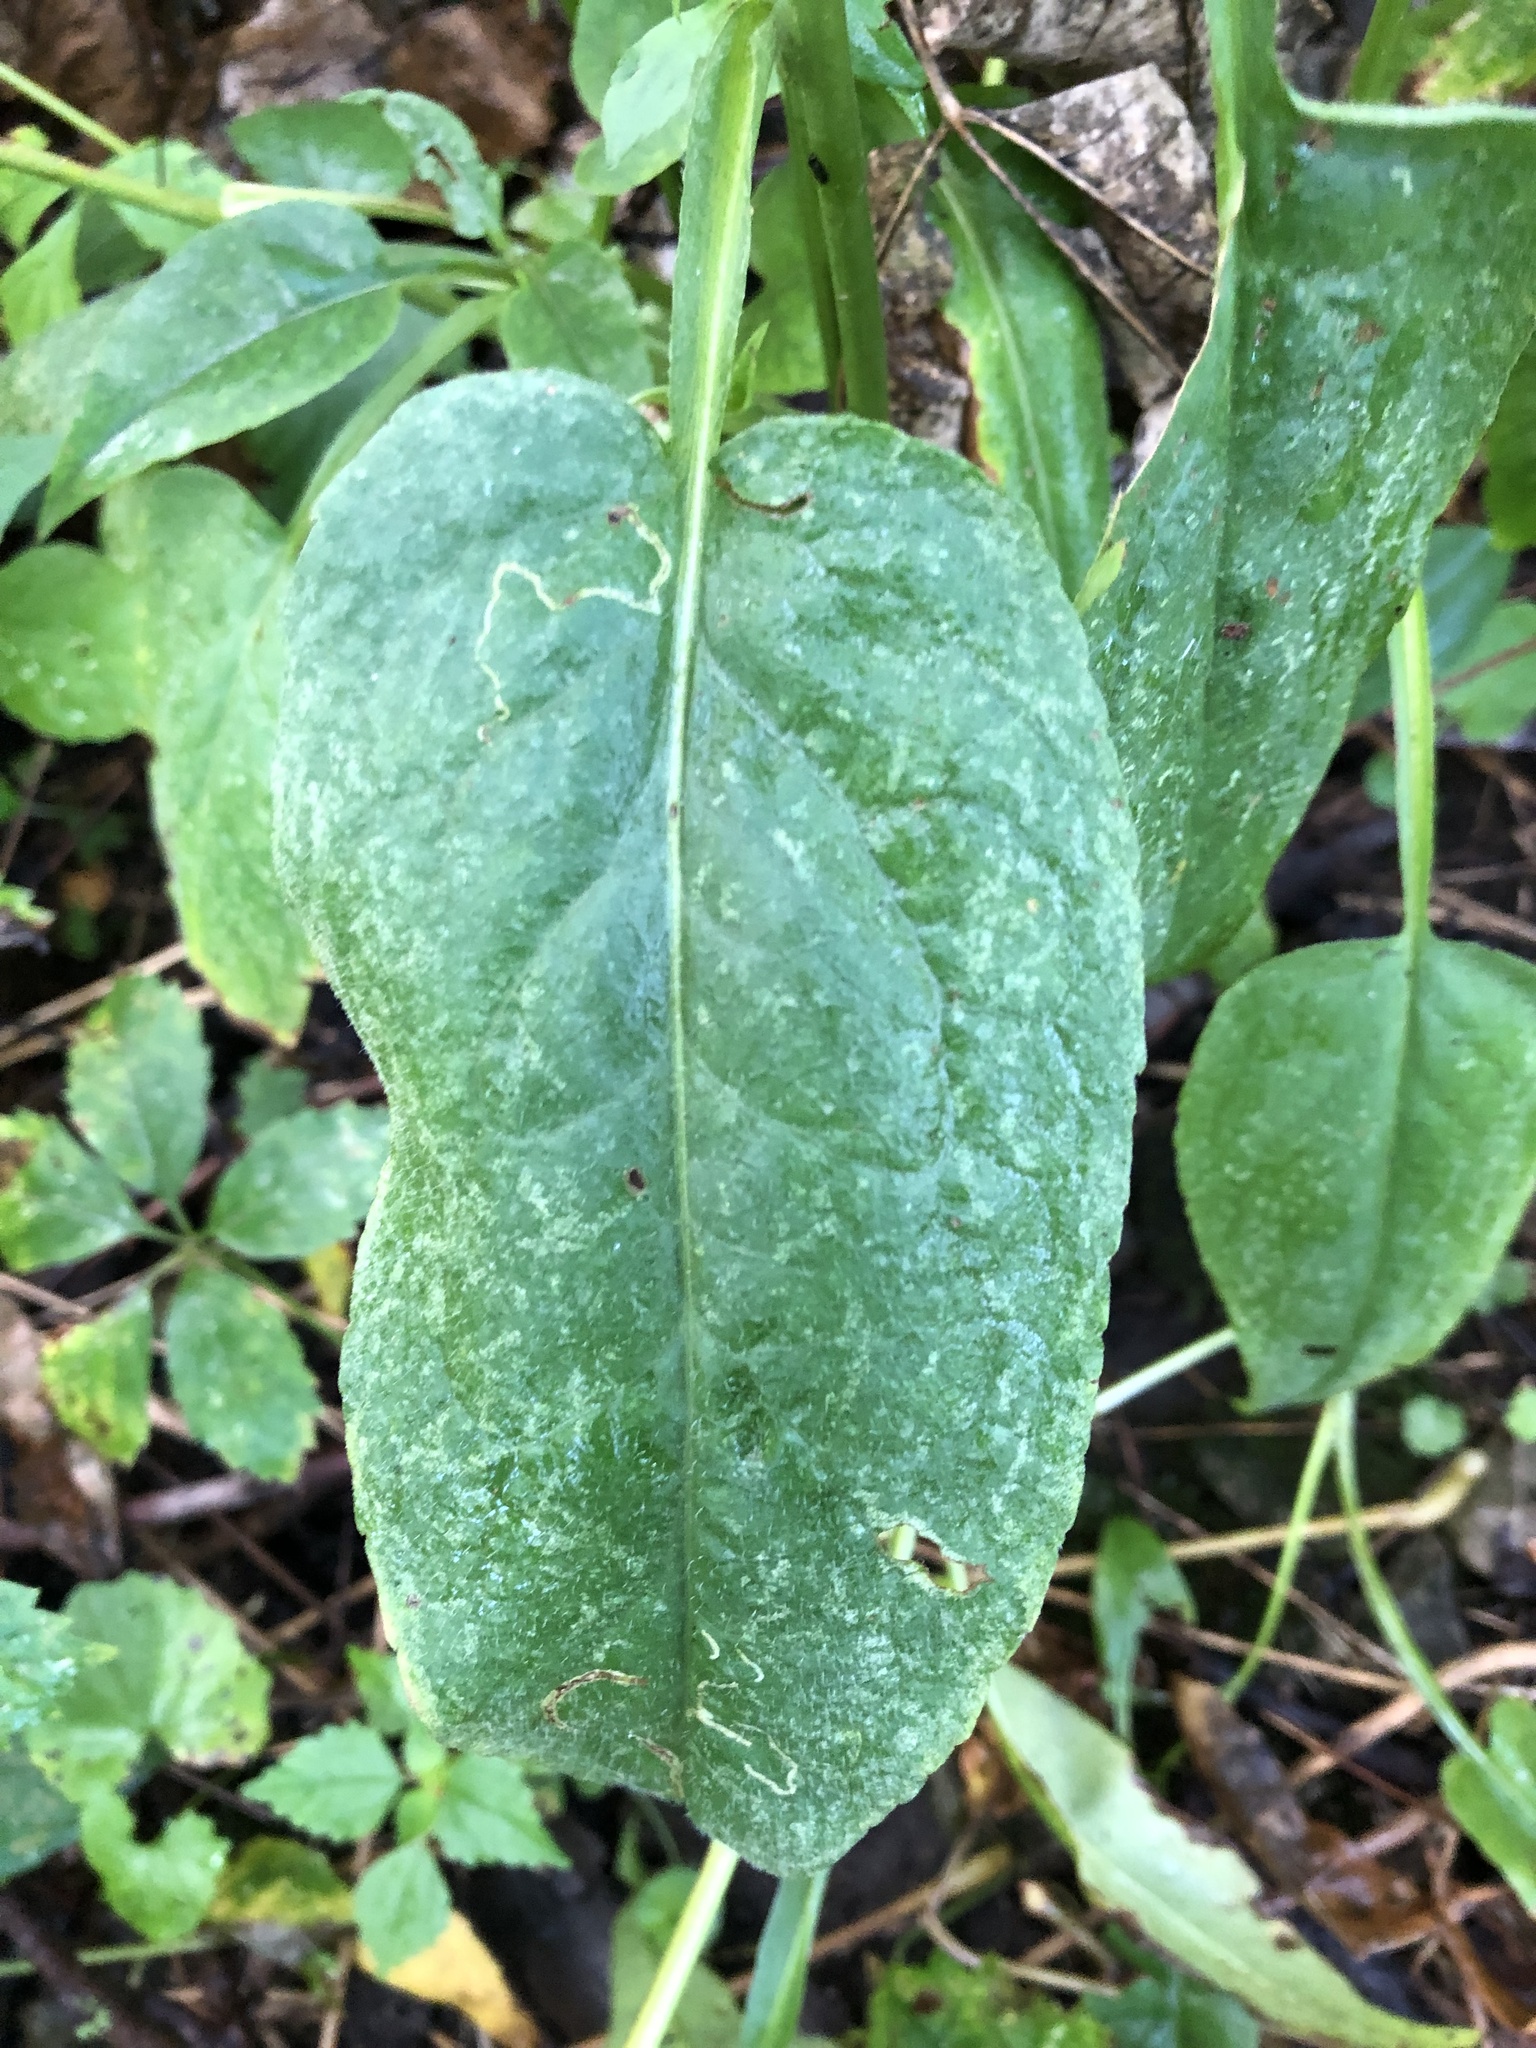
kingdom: Plantae
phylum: Tracheophyta
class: Magnoliopsida
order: Asterales
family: Asteraceae
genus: Symphyotrichum
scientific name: Symphyotrichum urophyllum
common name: Arrow-leaved aster
